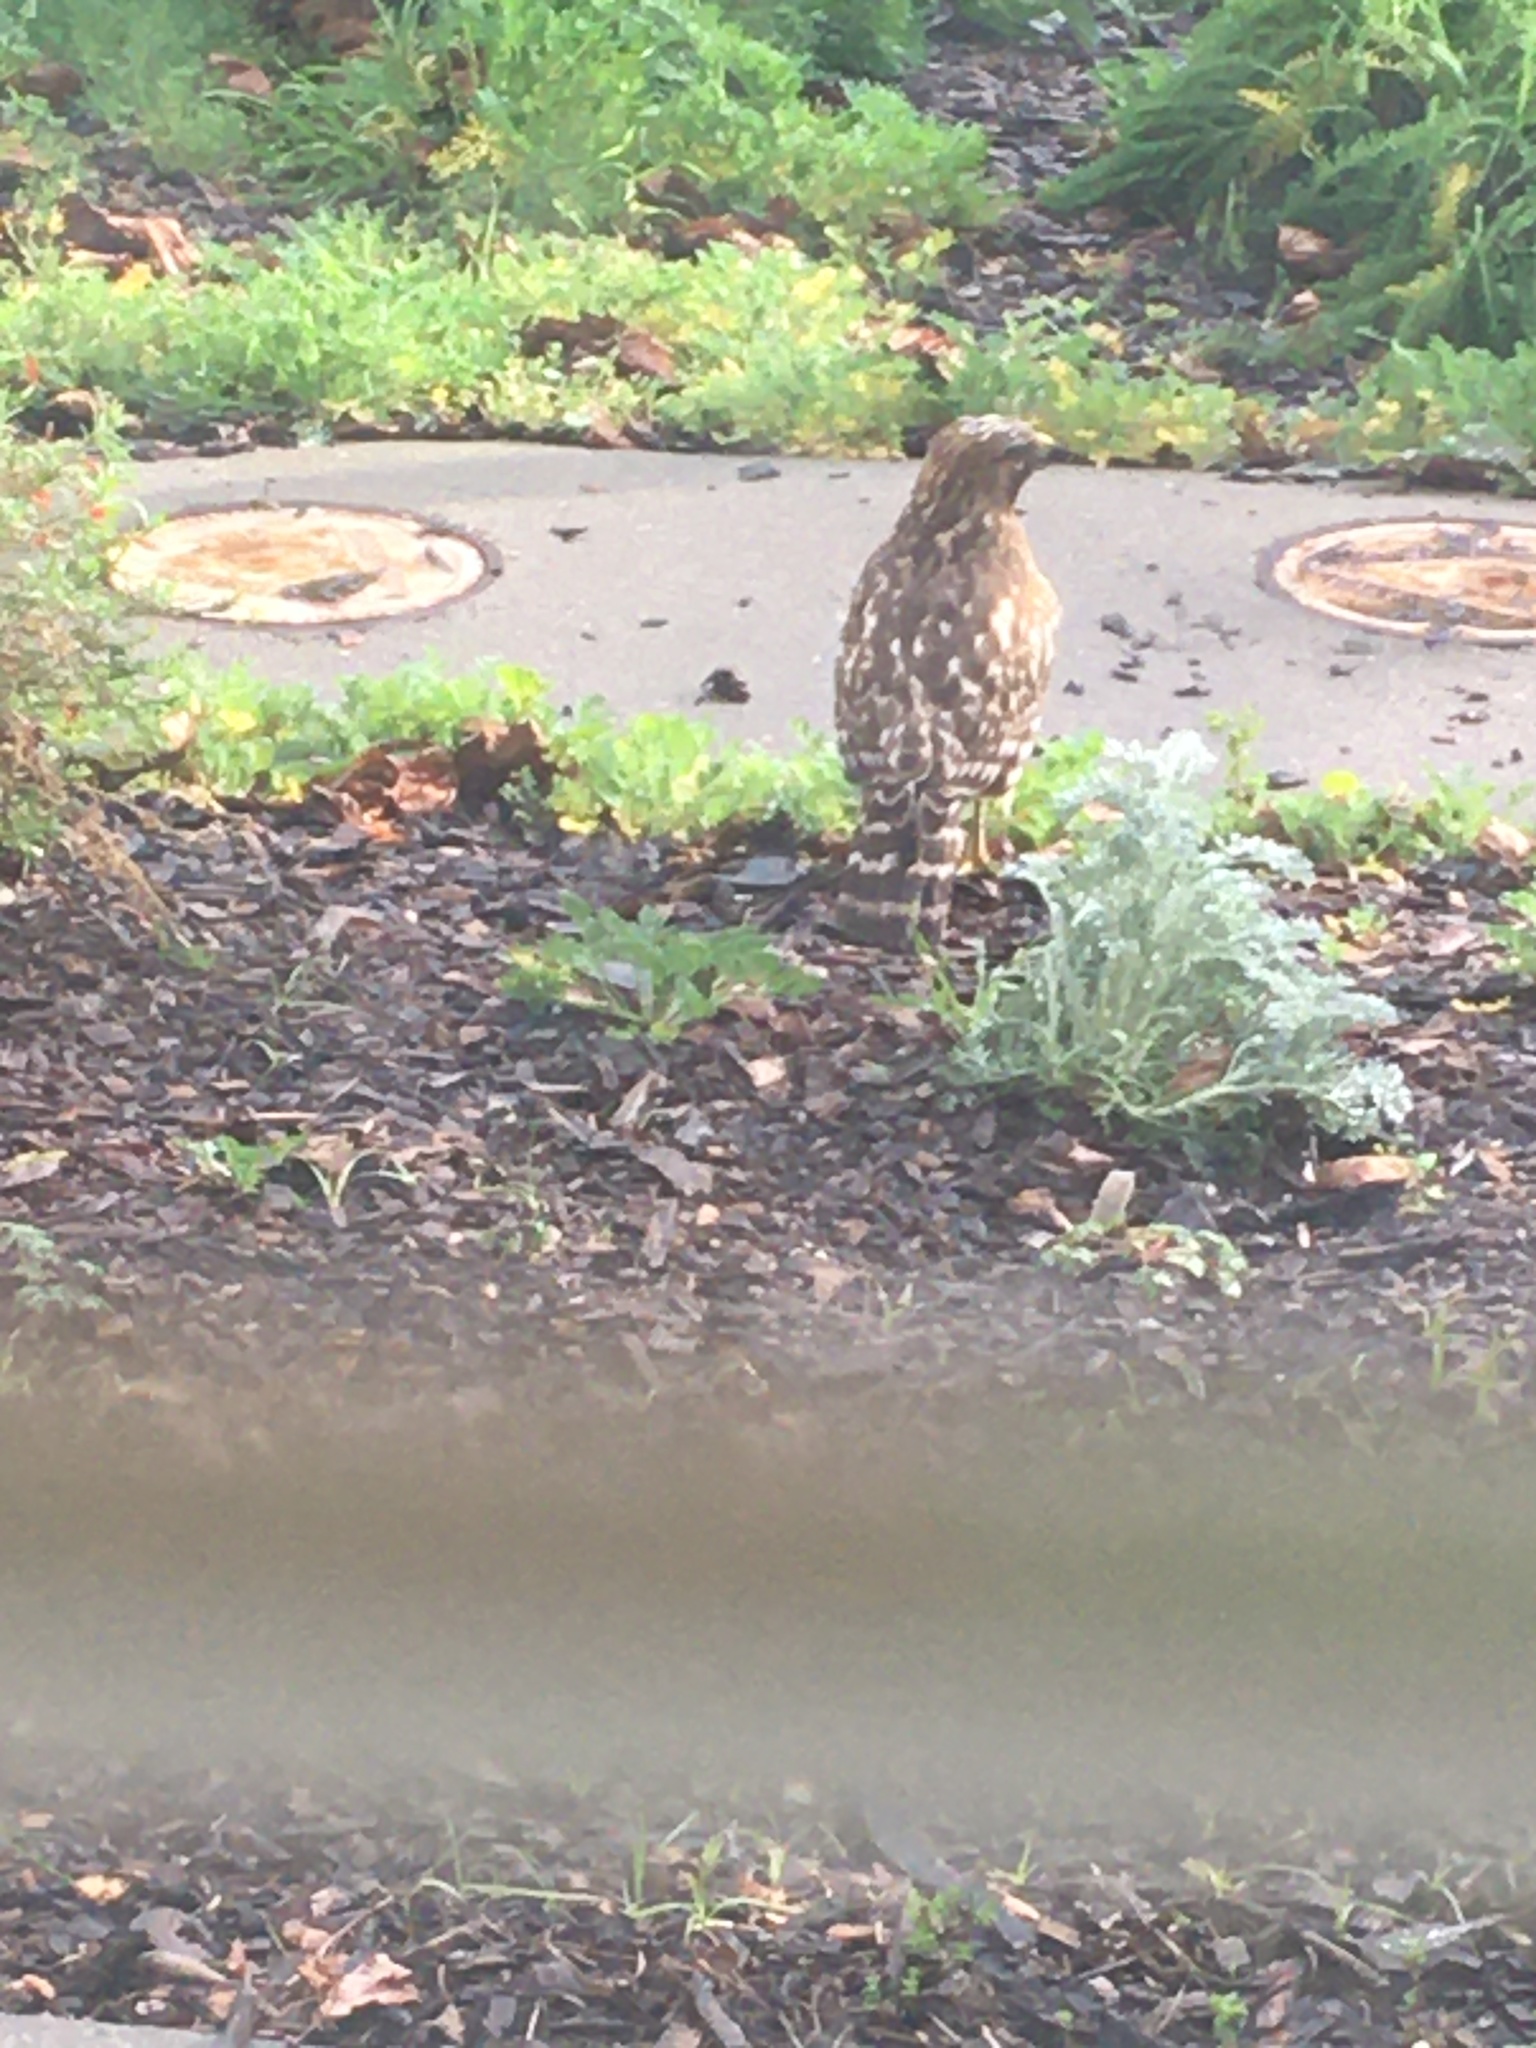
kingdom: Animalia
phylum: Chordata
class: Aves
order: Accipitriformes
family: Accipitridae
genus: Buteo
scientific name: Buteo lineatus
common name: Red-shouldered hawk
